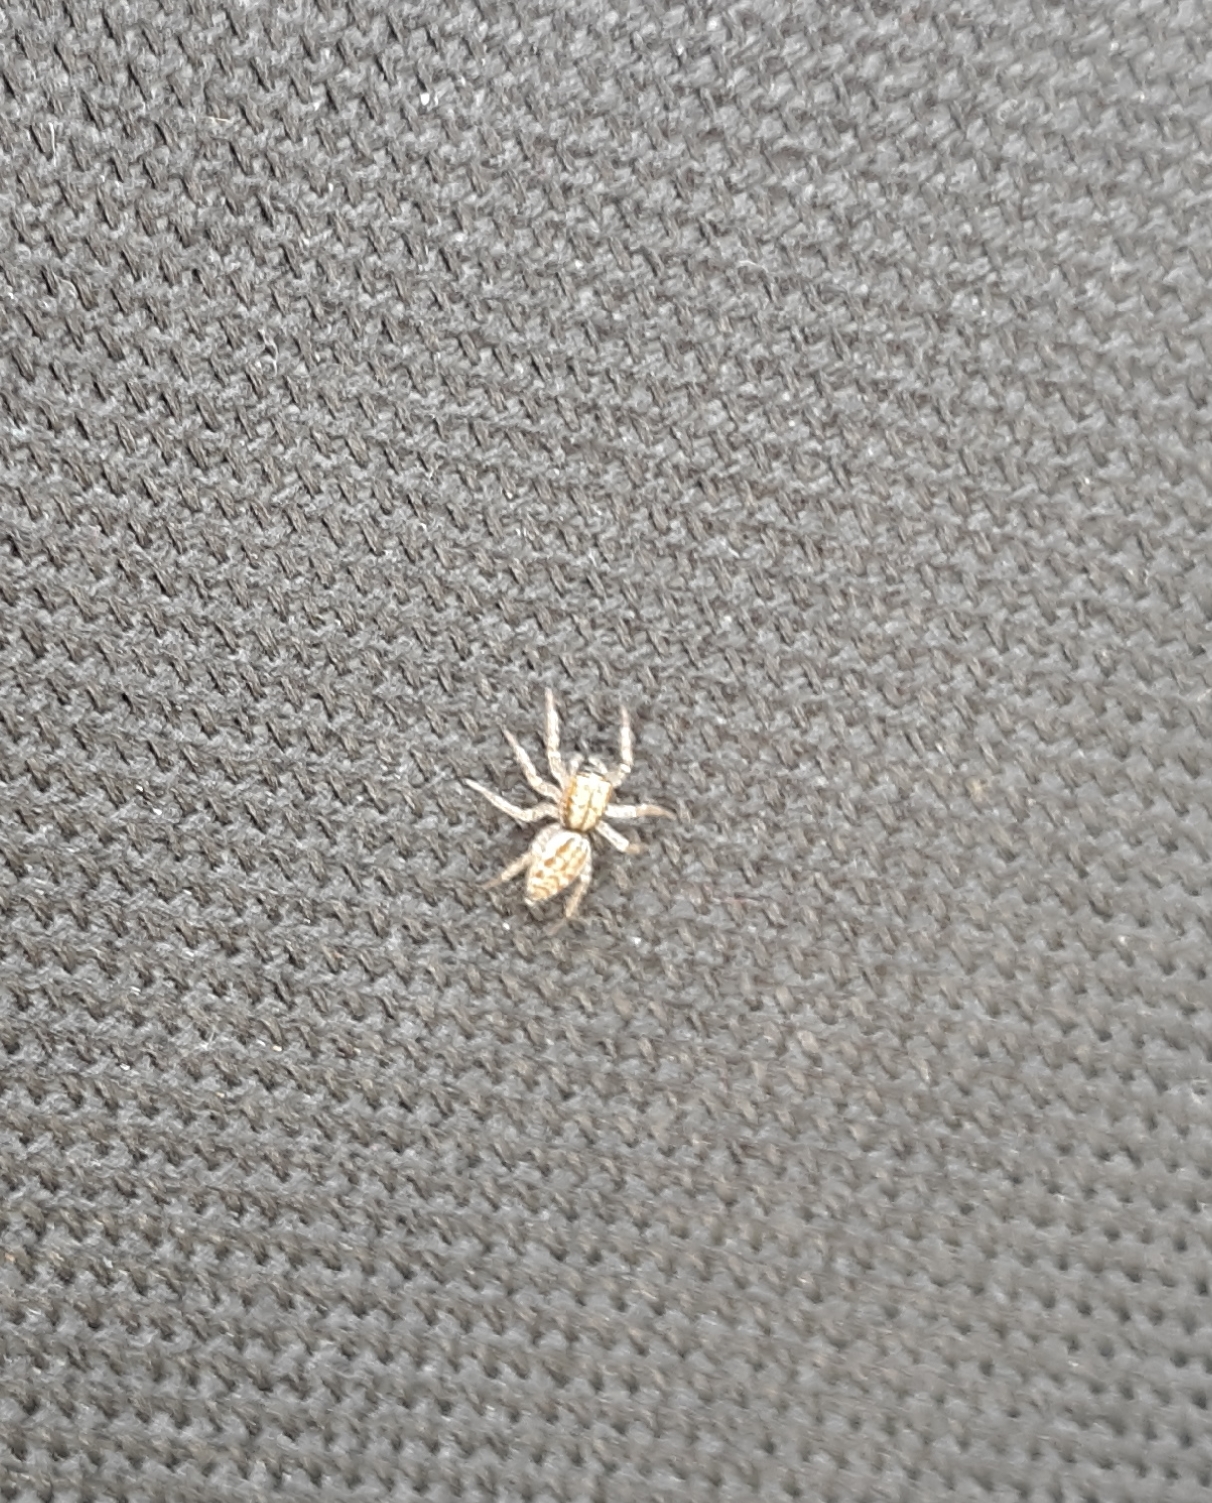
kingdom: Animalia
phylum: Arthropoda
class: Arachnida
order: Araneae
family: Salticidae
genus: Maevia
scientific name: Maevia inclemens
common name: Dimorphic jumper
